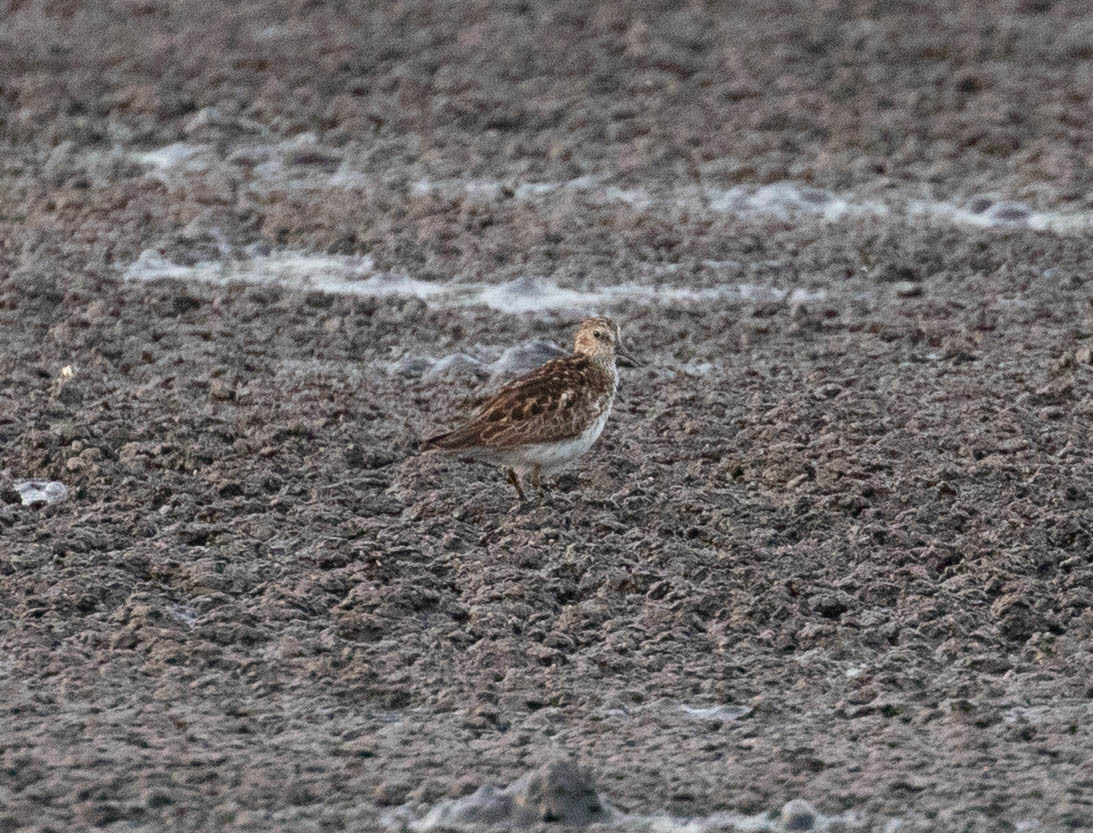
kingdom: Animalia
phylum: Chordata
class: Aves
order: Charadriiformes
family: Scolopacidae
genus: Calidris
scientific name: Calidris minutilla
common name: Least sandpiper
